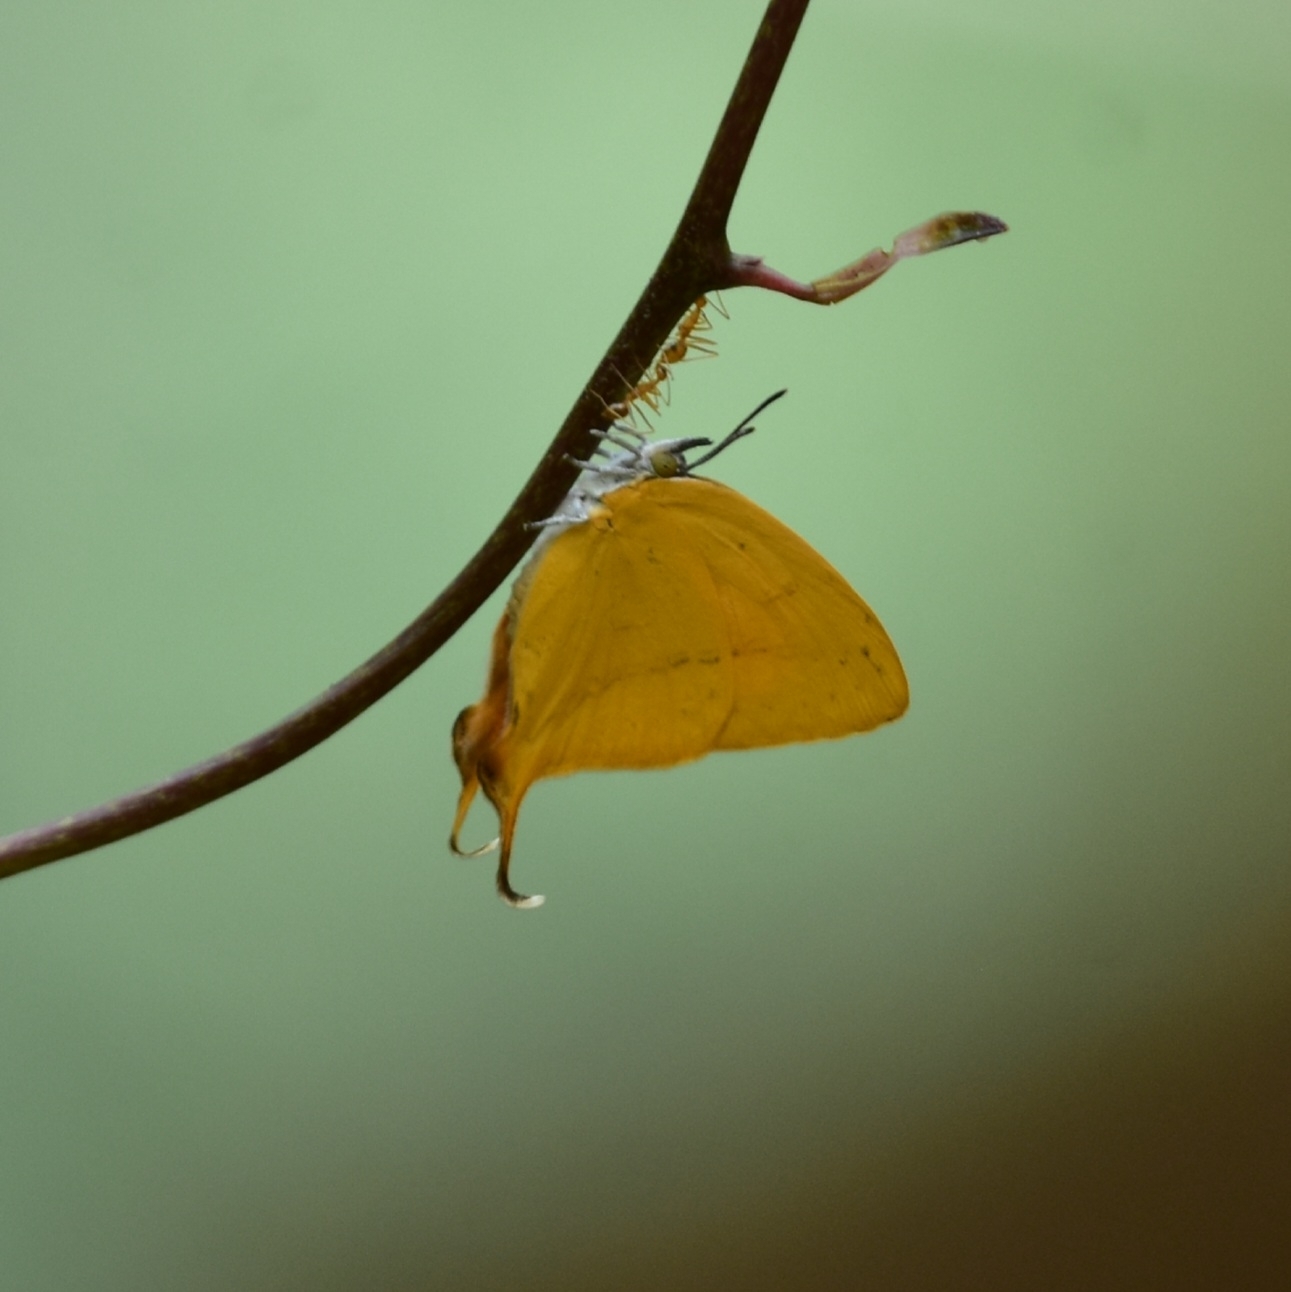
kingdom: Animalia
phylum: Arthropoda
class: Insecta
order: Lepidoptera
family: Lycaenidae
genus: Loxura
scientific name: Loxura atymnus
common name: Common yamfly
